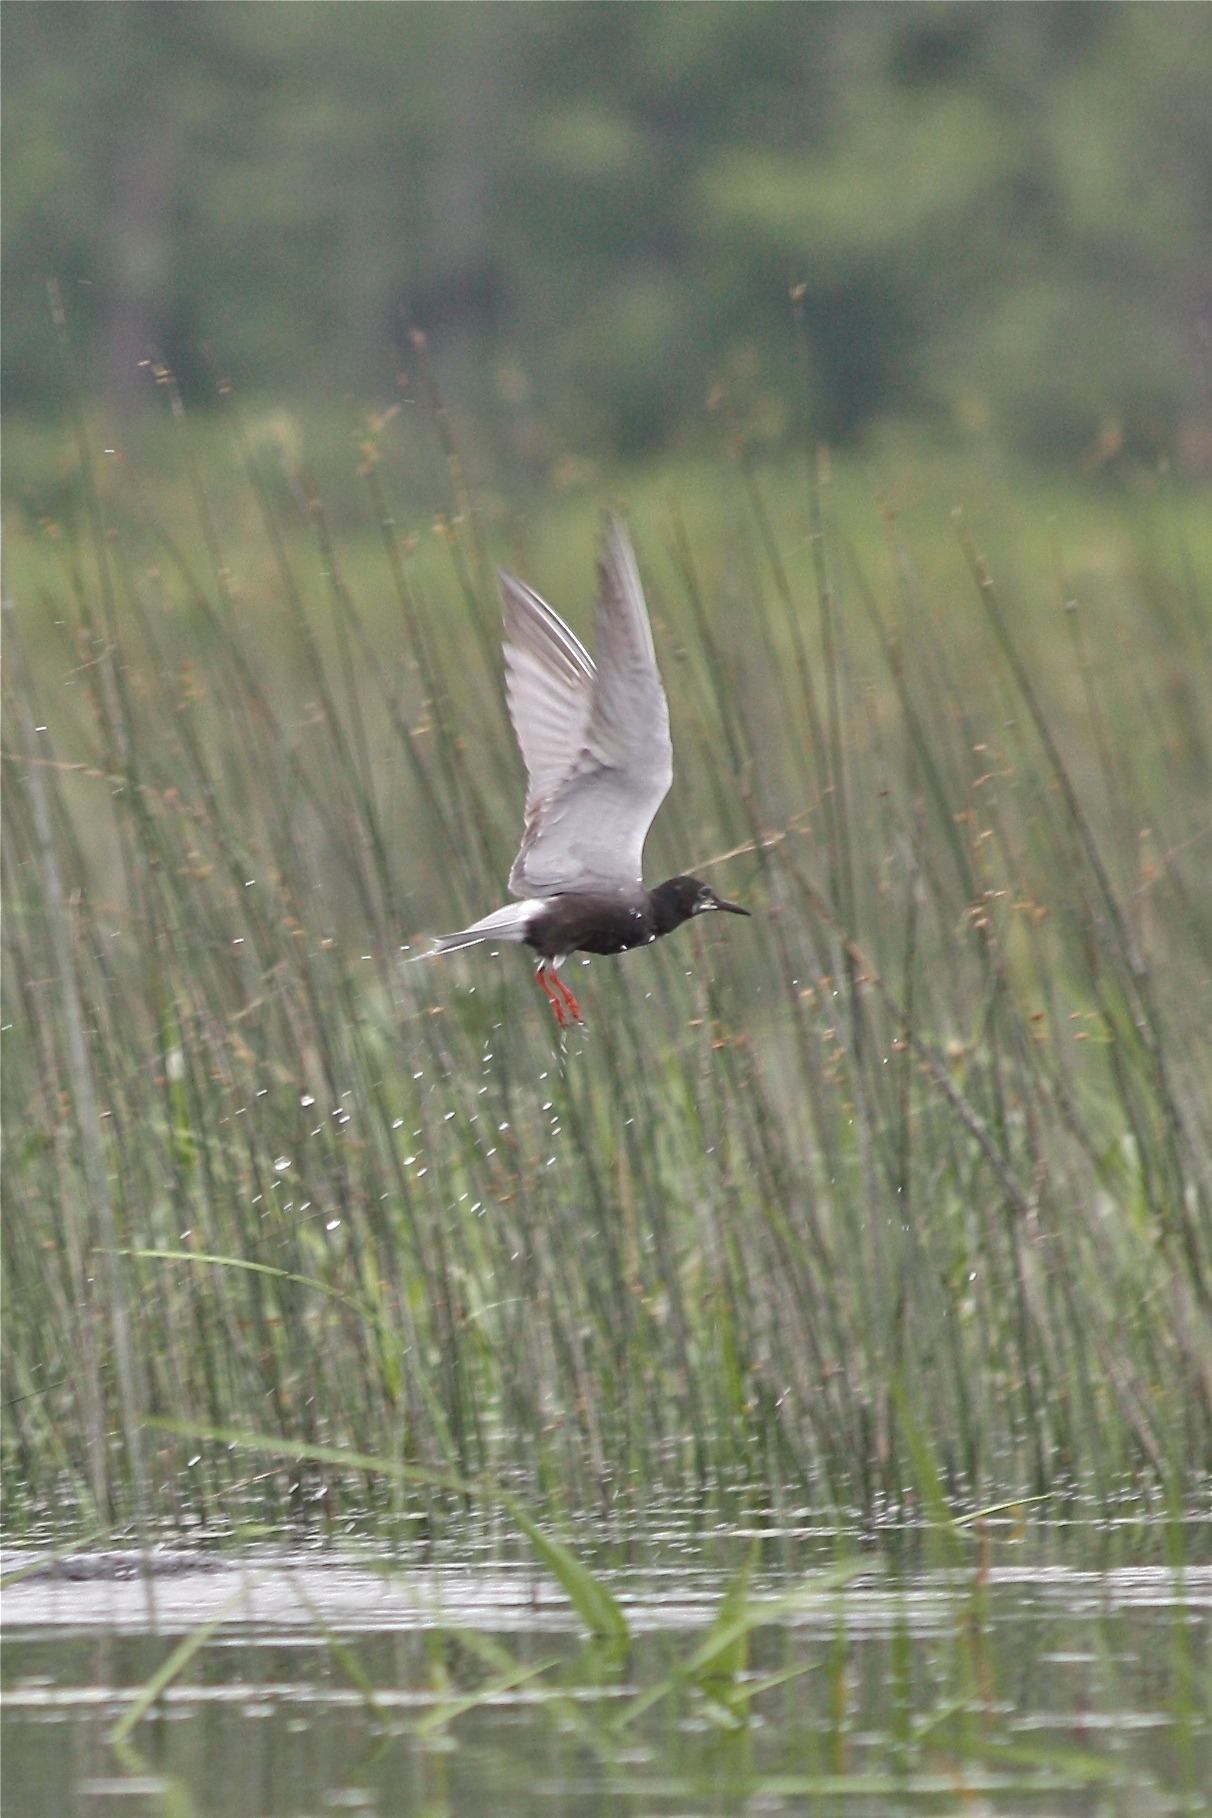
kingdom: Animalia
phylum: Chordata
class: Aves
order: Charadriiformes
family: Laridae
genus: Chlidonias
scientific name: Chlidonias niger
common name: Black tern
